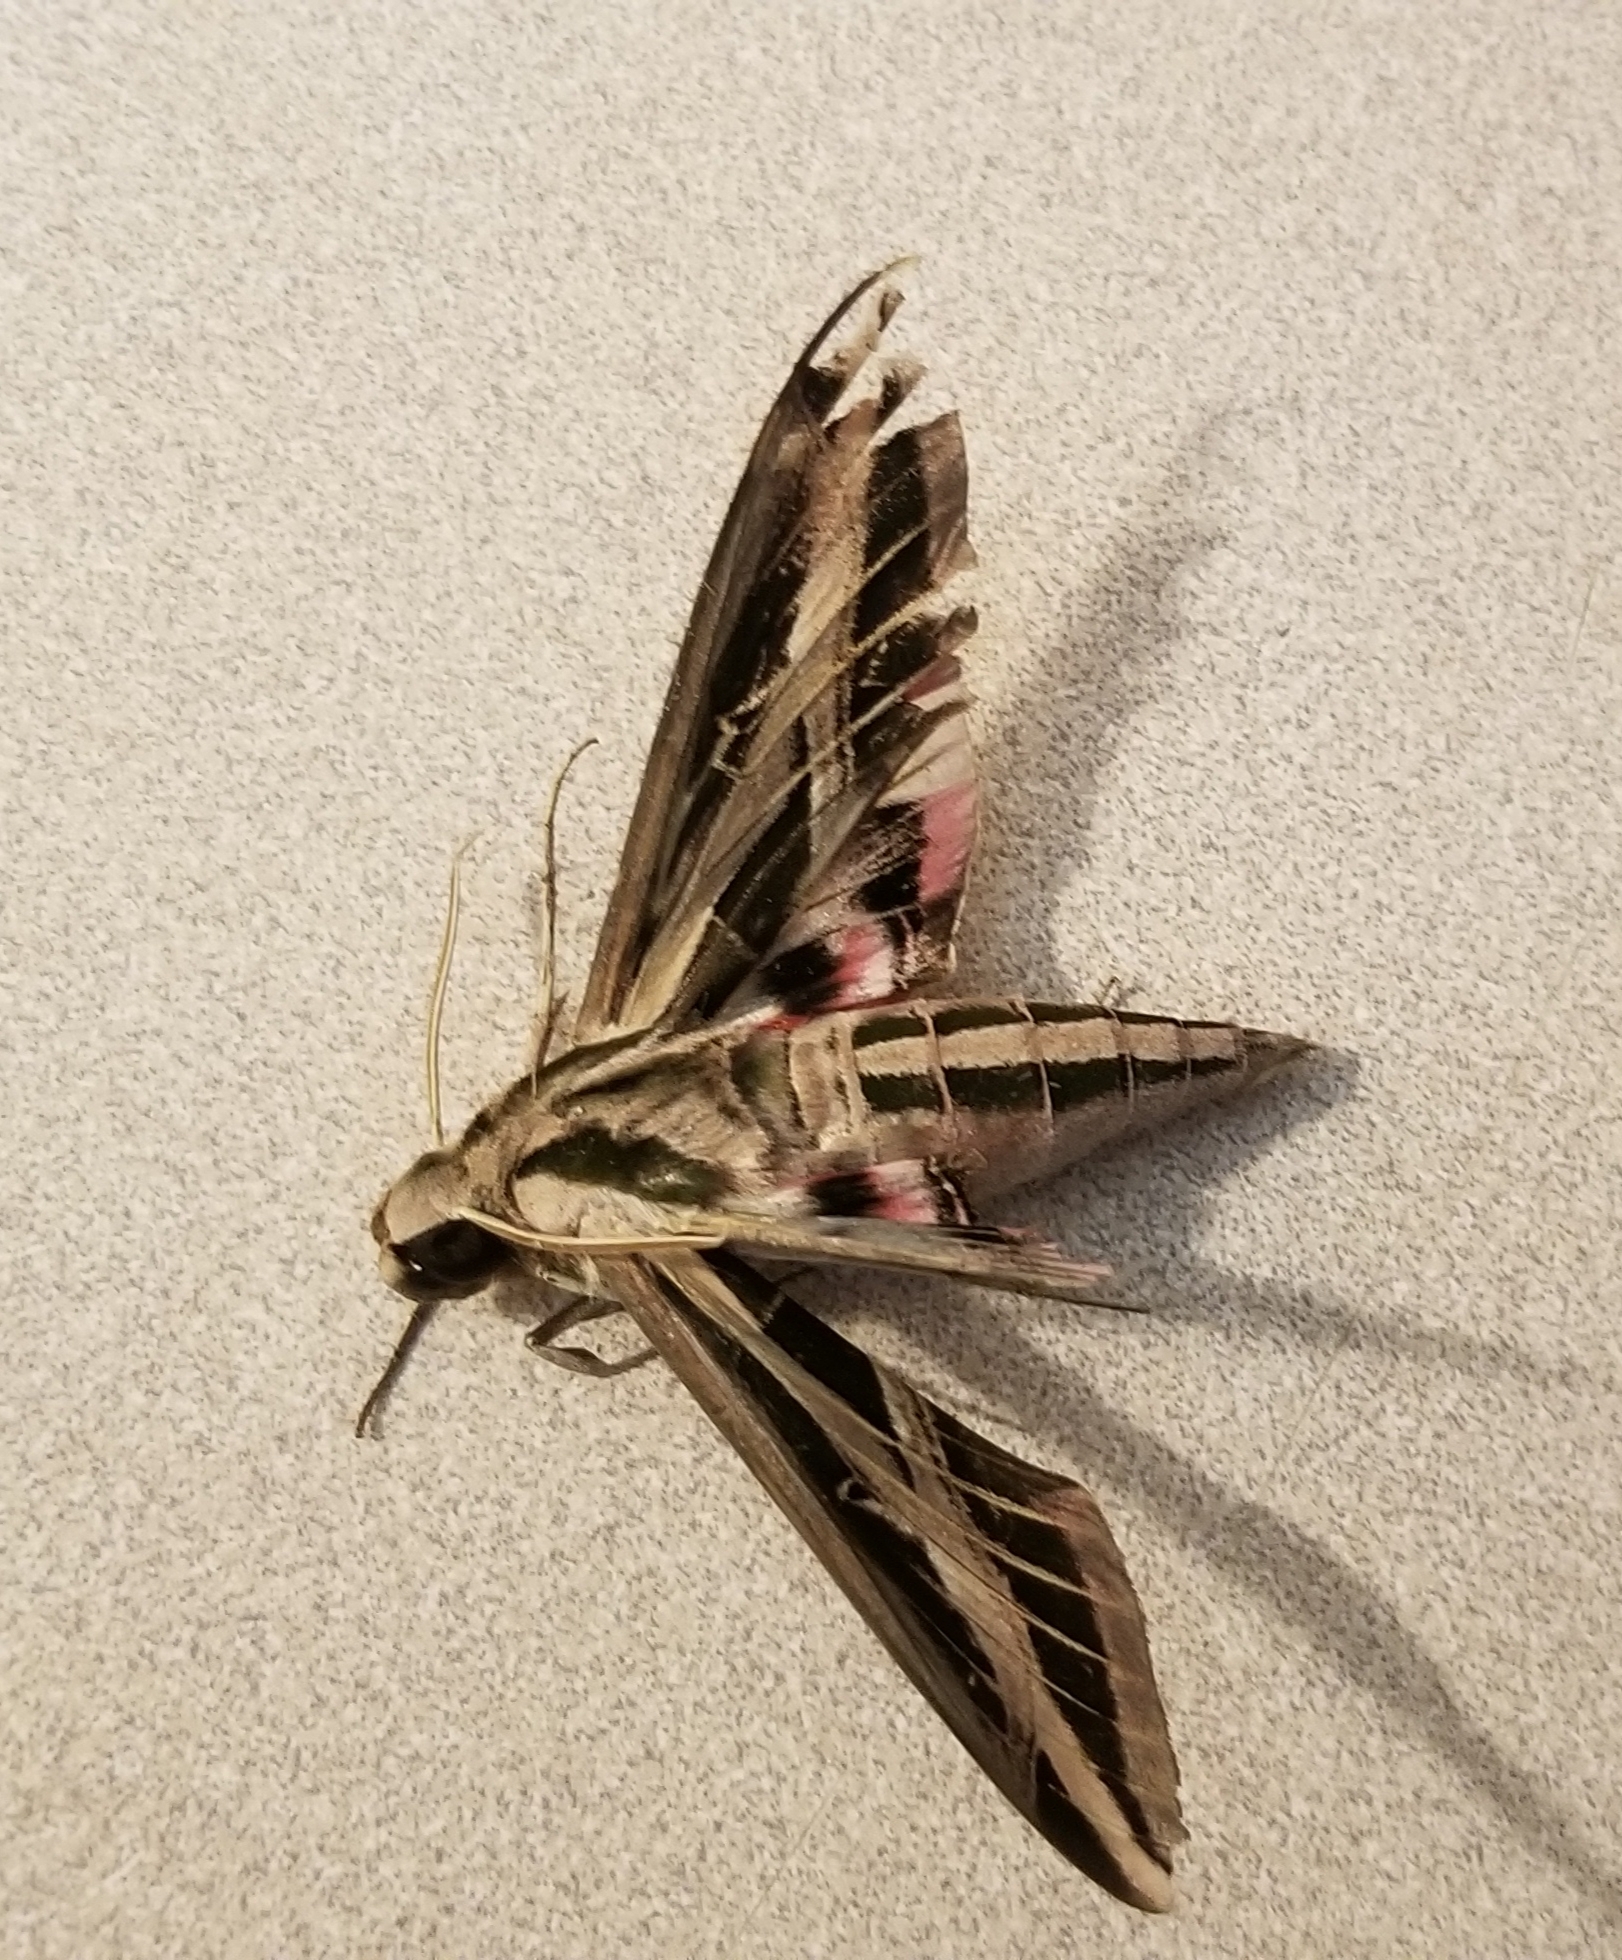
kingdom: Animalia
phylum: Arthropoda
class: Insecta
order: Lepidoptera
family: Sphingidae
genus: Eumorpha
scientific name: Eumorpha fasciatus
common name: Banded sphinx
